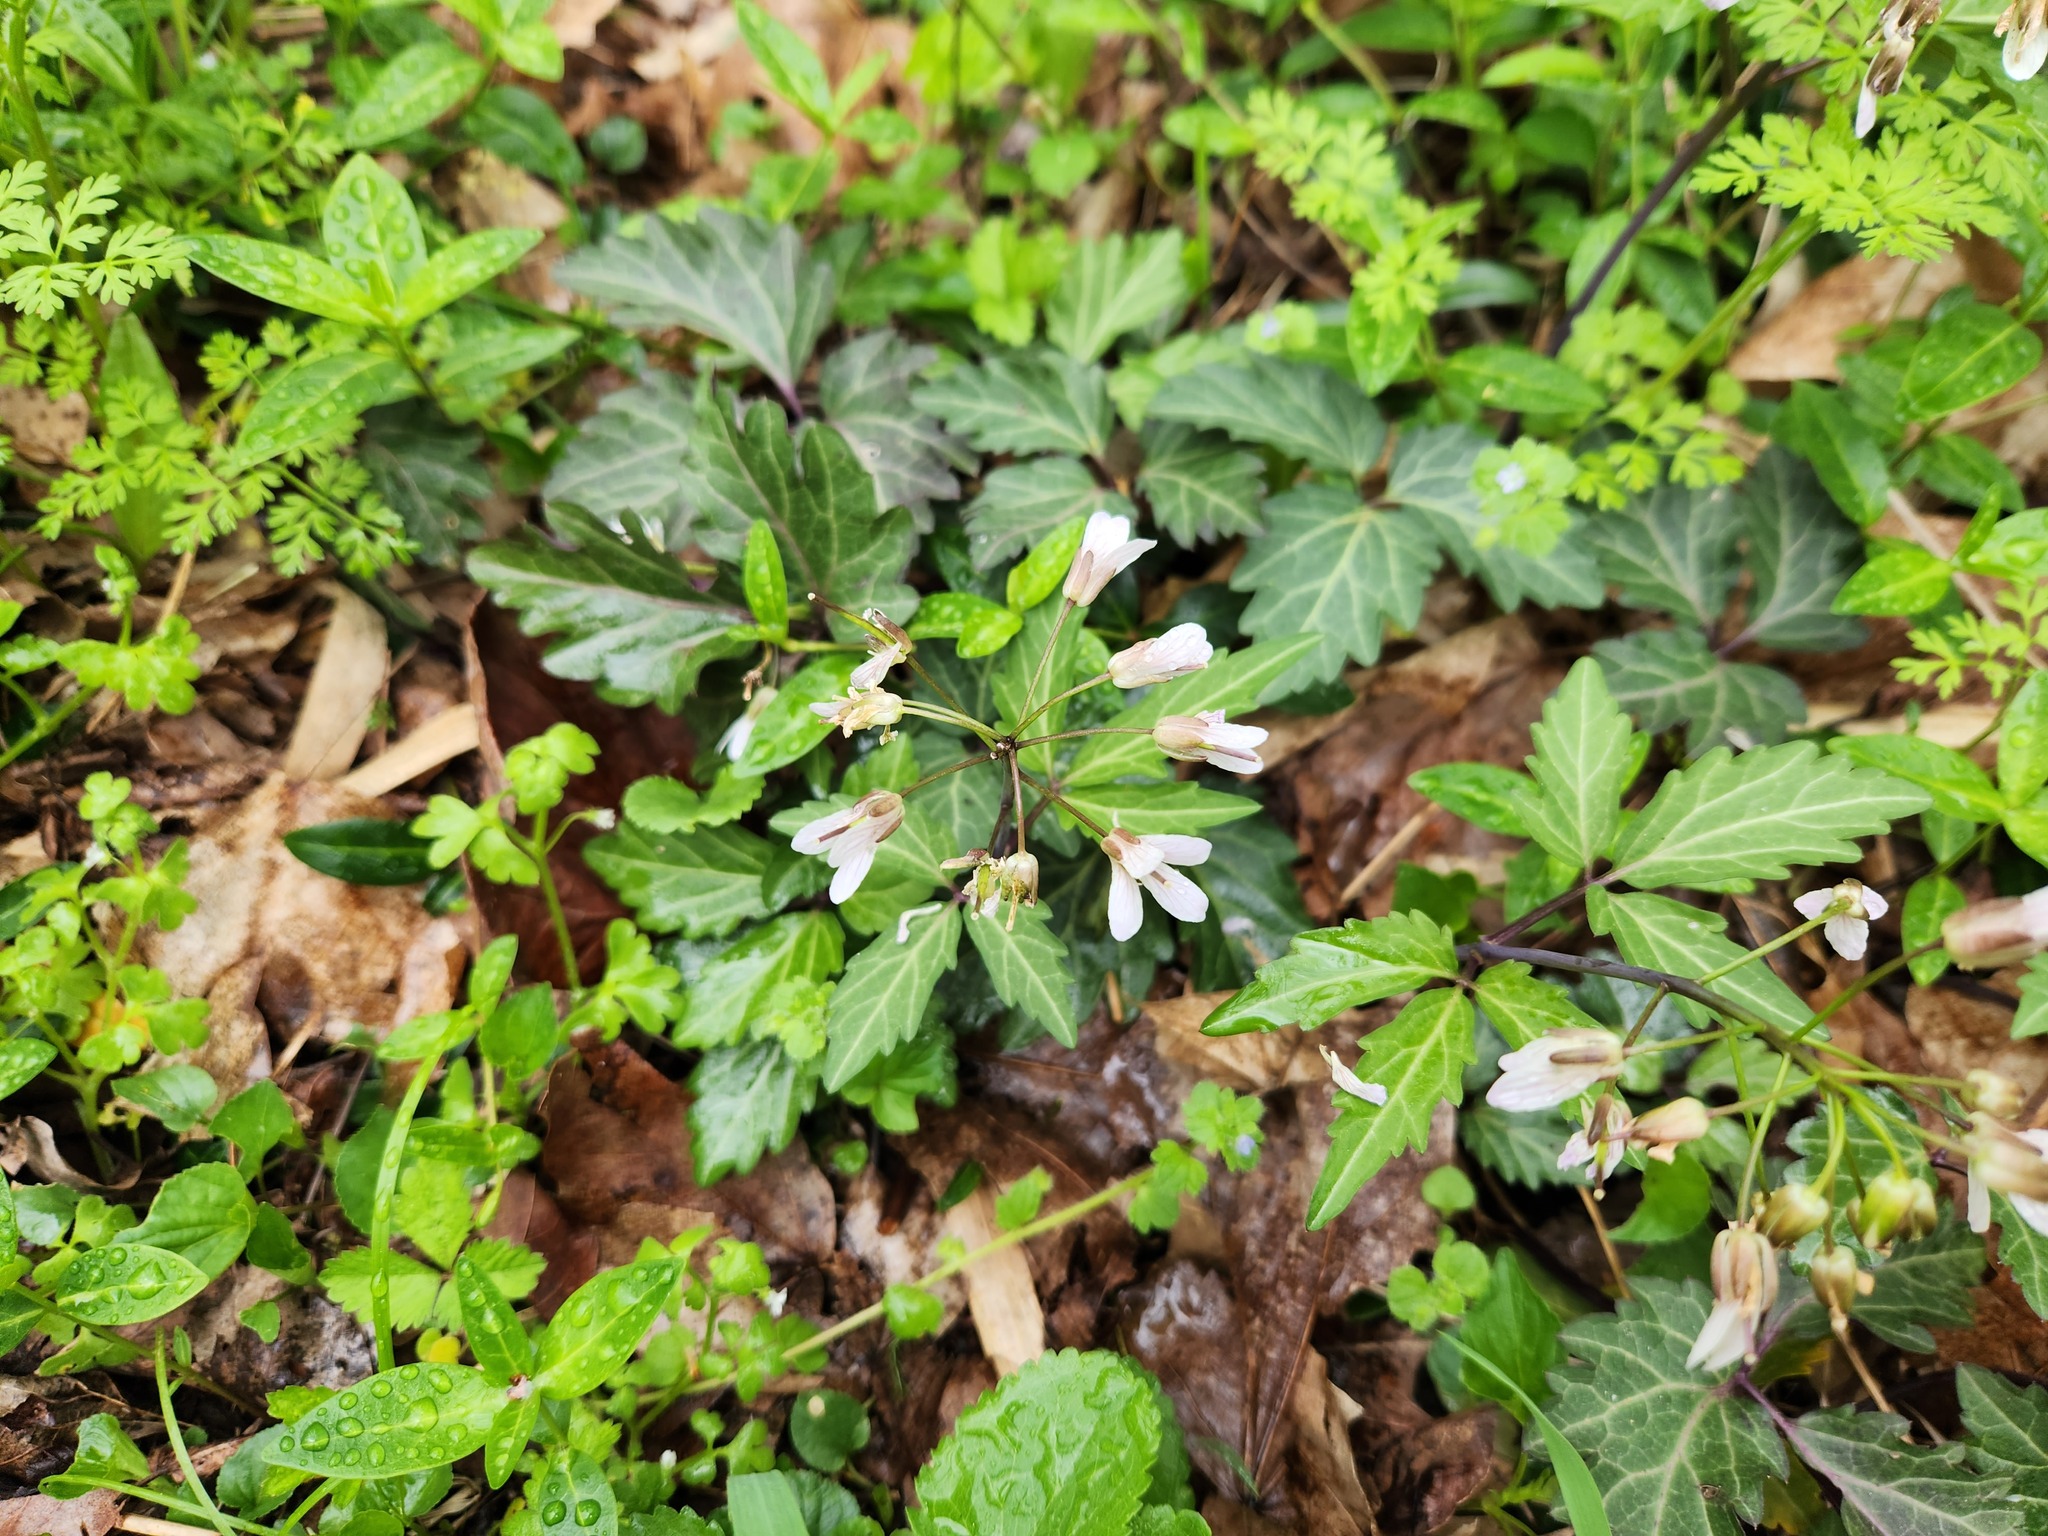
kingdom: Plantae
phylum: Tracheophyta
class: Magnoliopsida
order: Brassicales
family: Brassicaceae
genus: Cardamine
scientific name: Cardamine diphylla
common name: Broad-leaved toothwort
